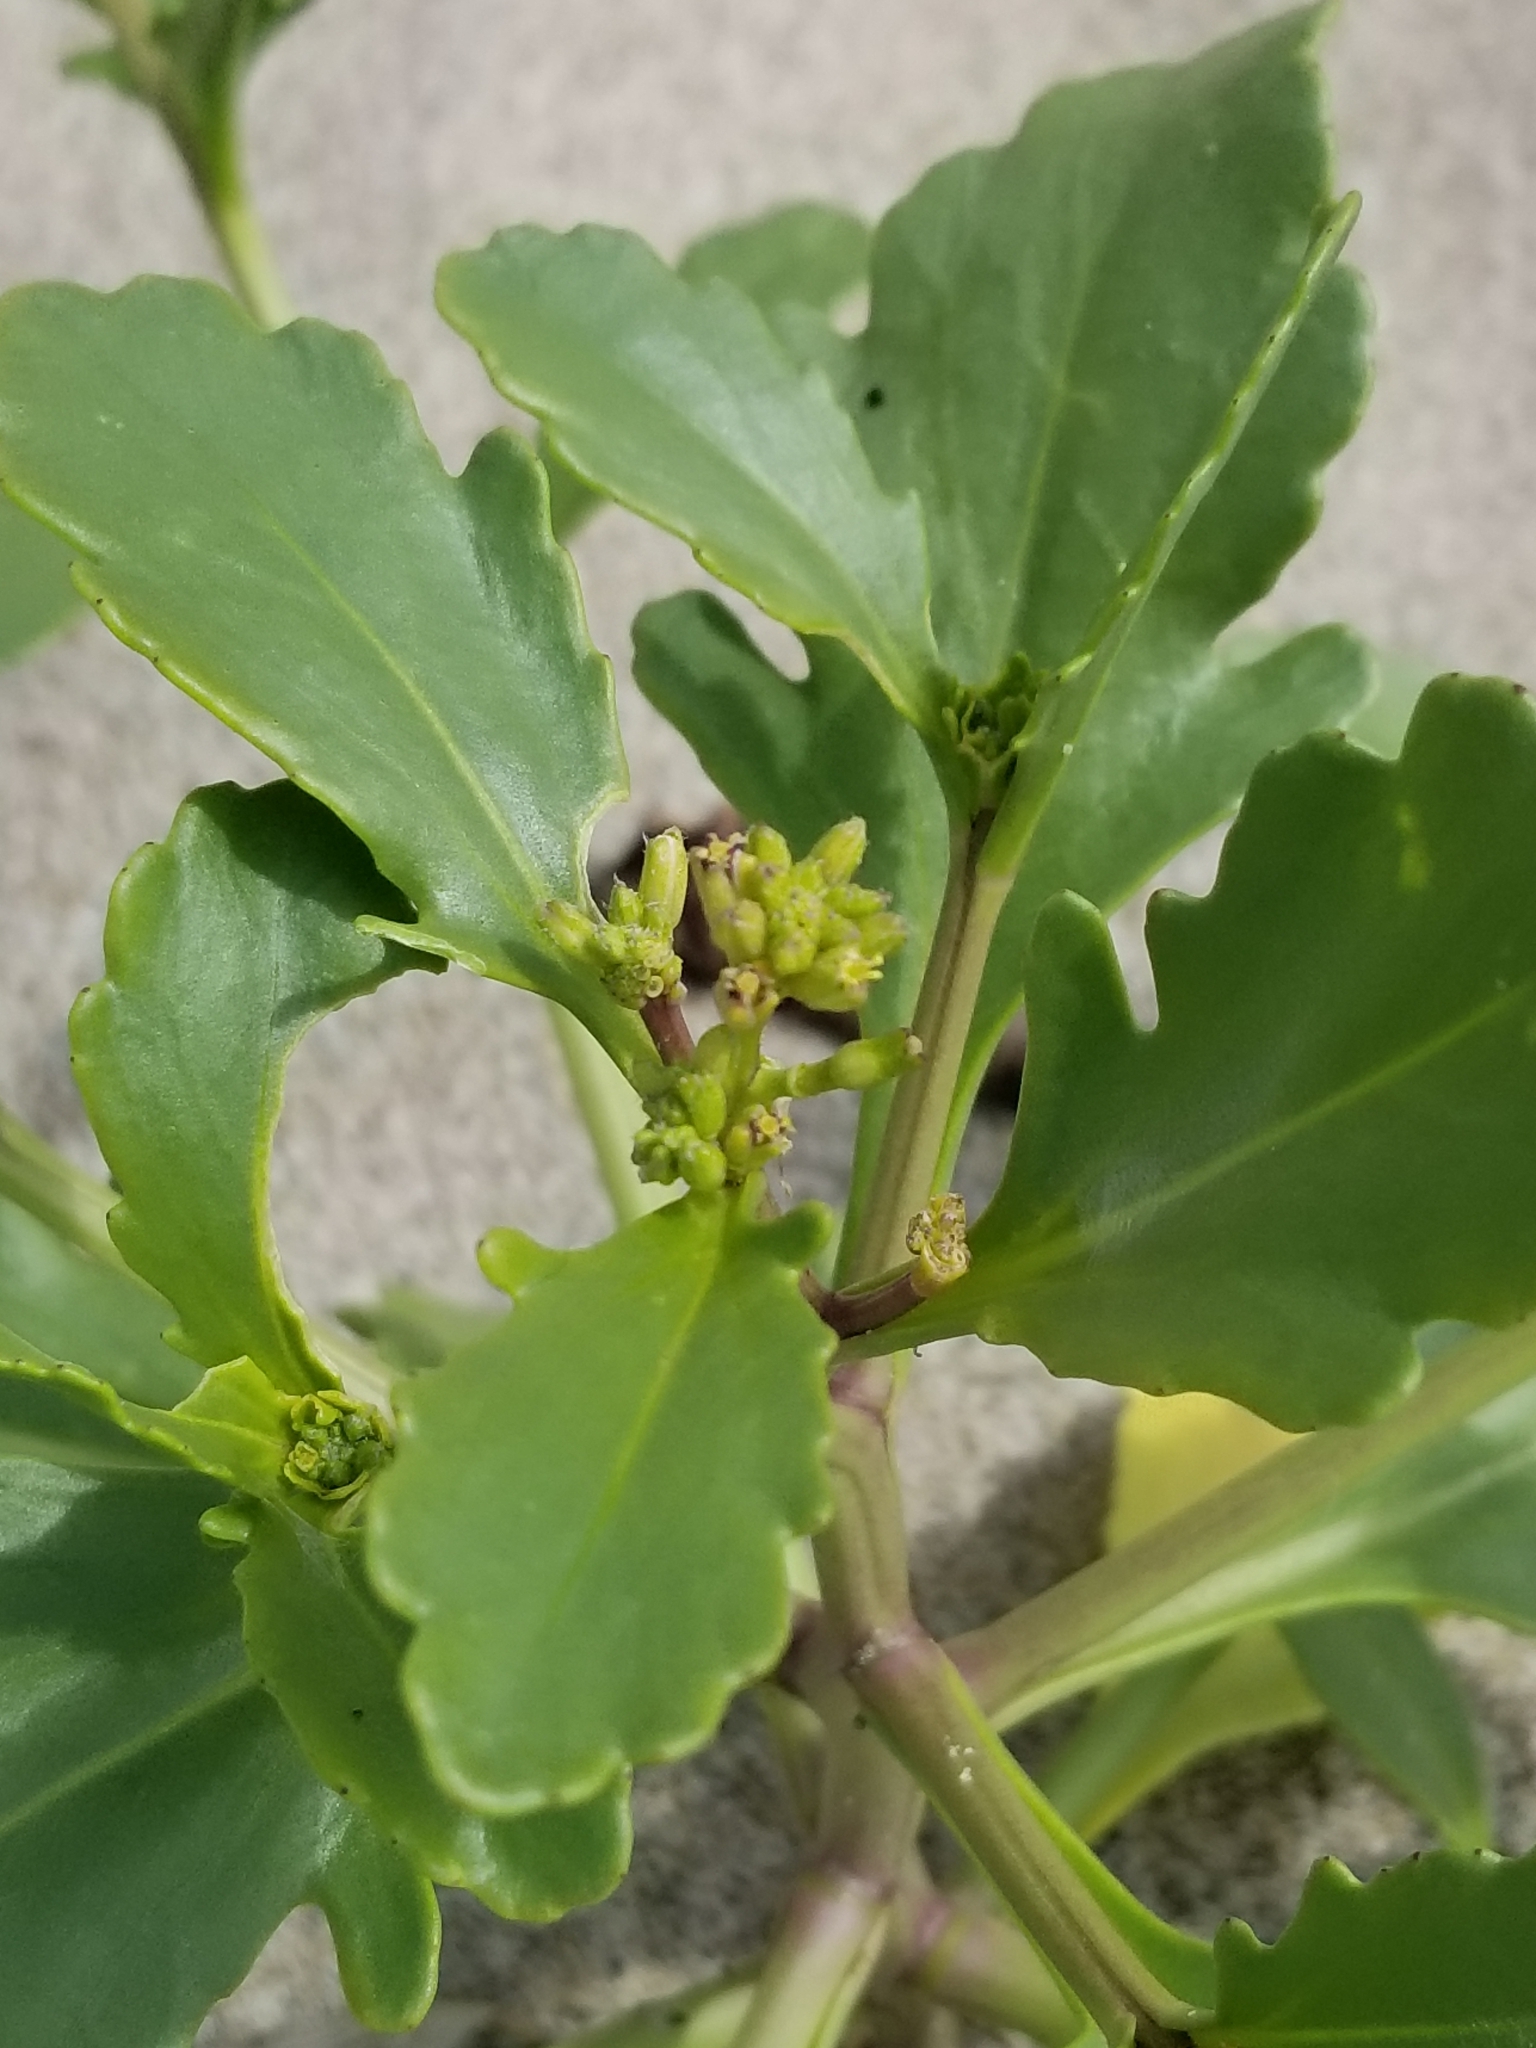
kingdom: Plantae
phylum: Tracheophyta
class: Magnoliopsida
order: Brassicales
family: Brassicaceae
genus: Cakile
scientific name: Cakile edentula
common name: American sea rocket
